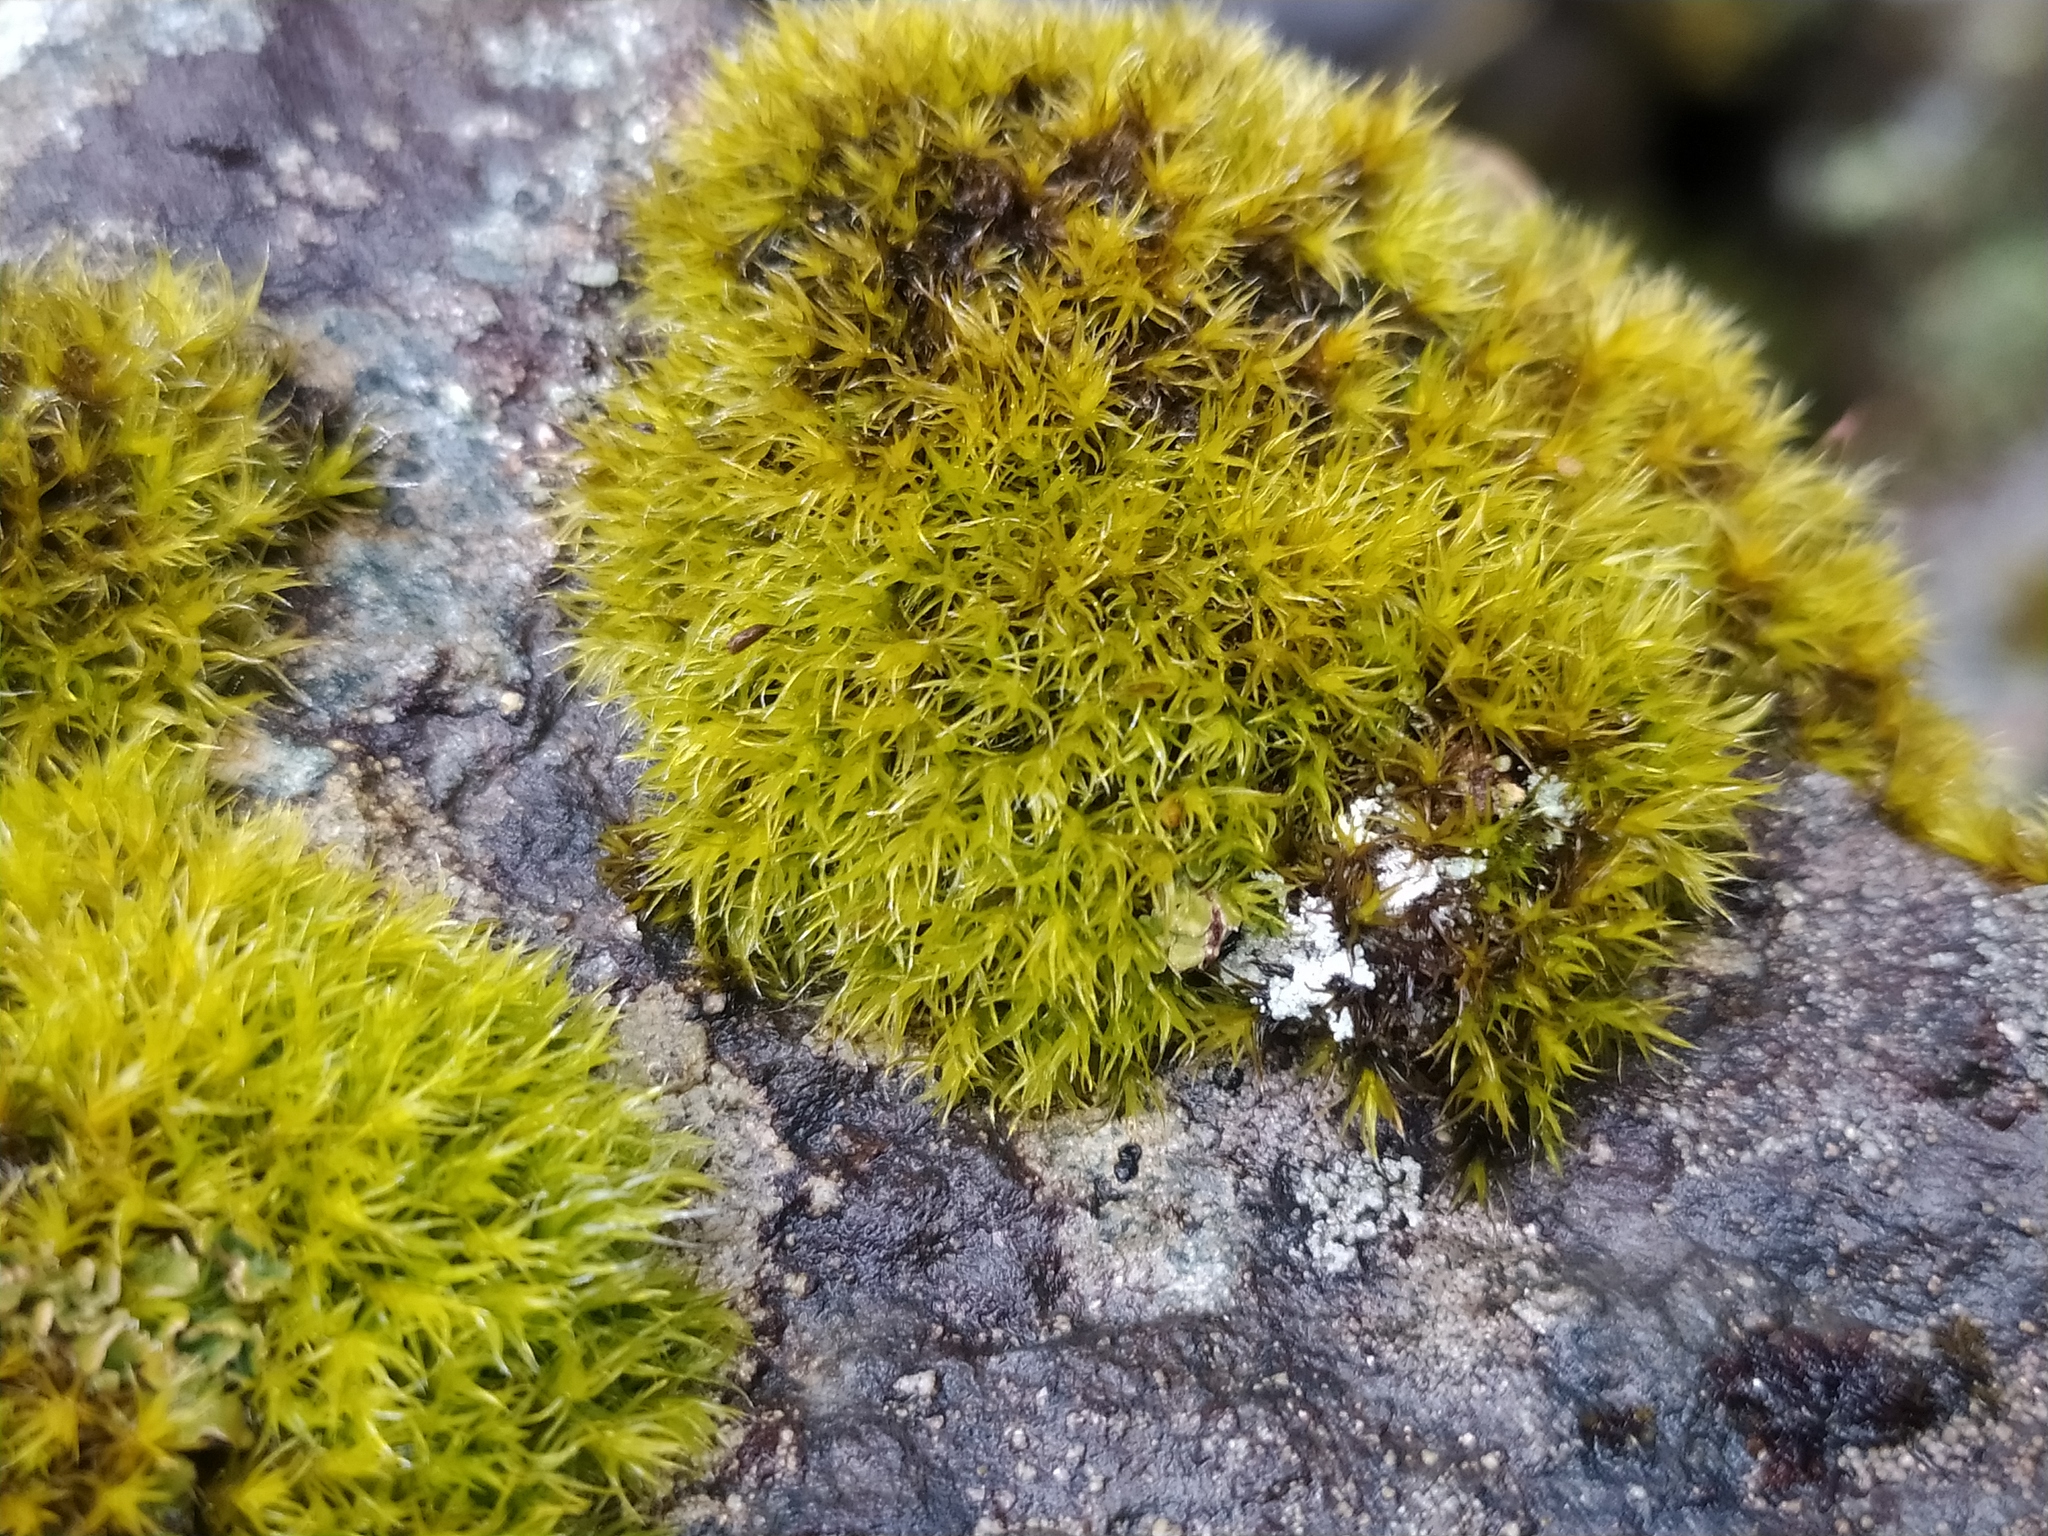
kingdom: Plantae
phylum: Bryophyta
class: Bryopsida
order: Grimmiales
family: Grimmiaceae
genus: Bucklandiella
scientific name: Bucklandiella sudetica
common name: Slender fringe-moss
